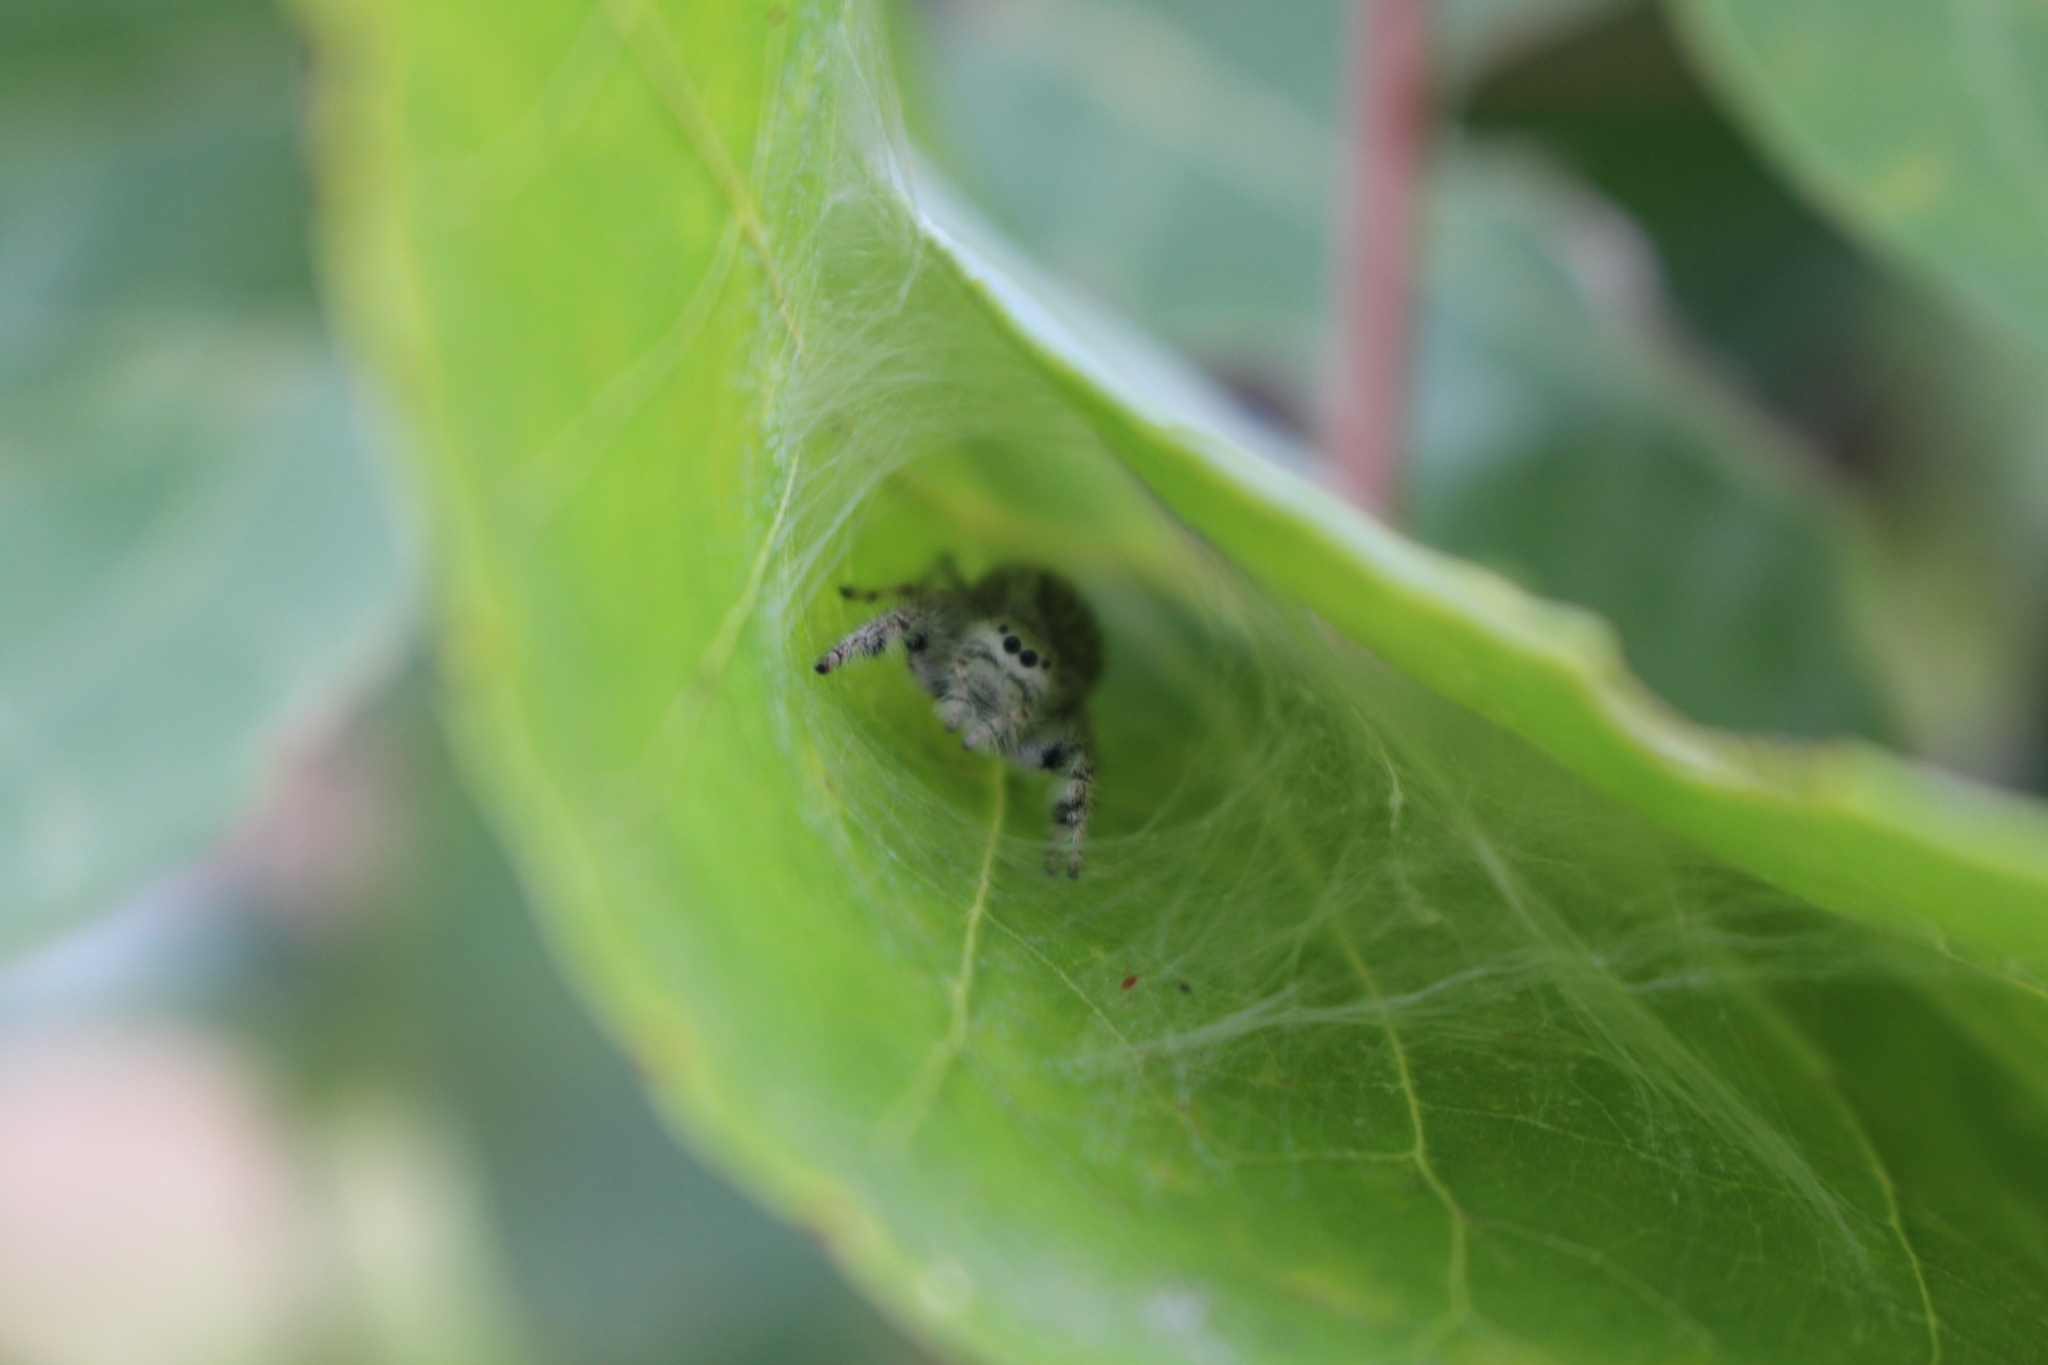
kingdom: Animalia
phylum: Arthropoda
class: Arachnida
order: Araneae
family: Salticidae
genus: Paraphidippus
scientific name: Paraphidippus fartilis
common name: Jumping spiders
